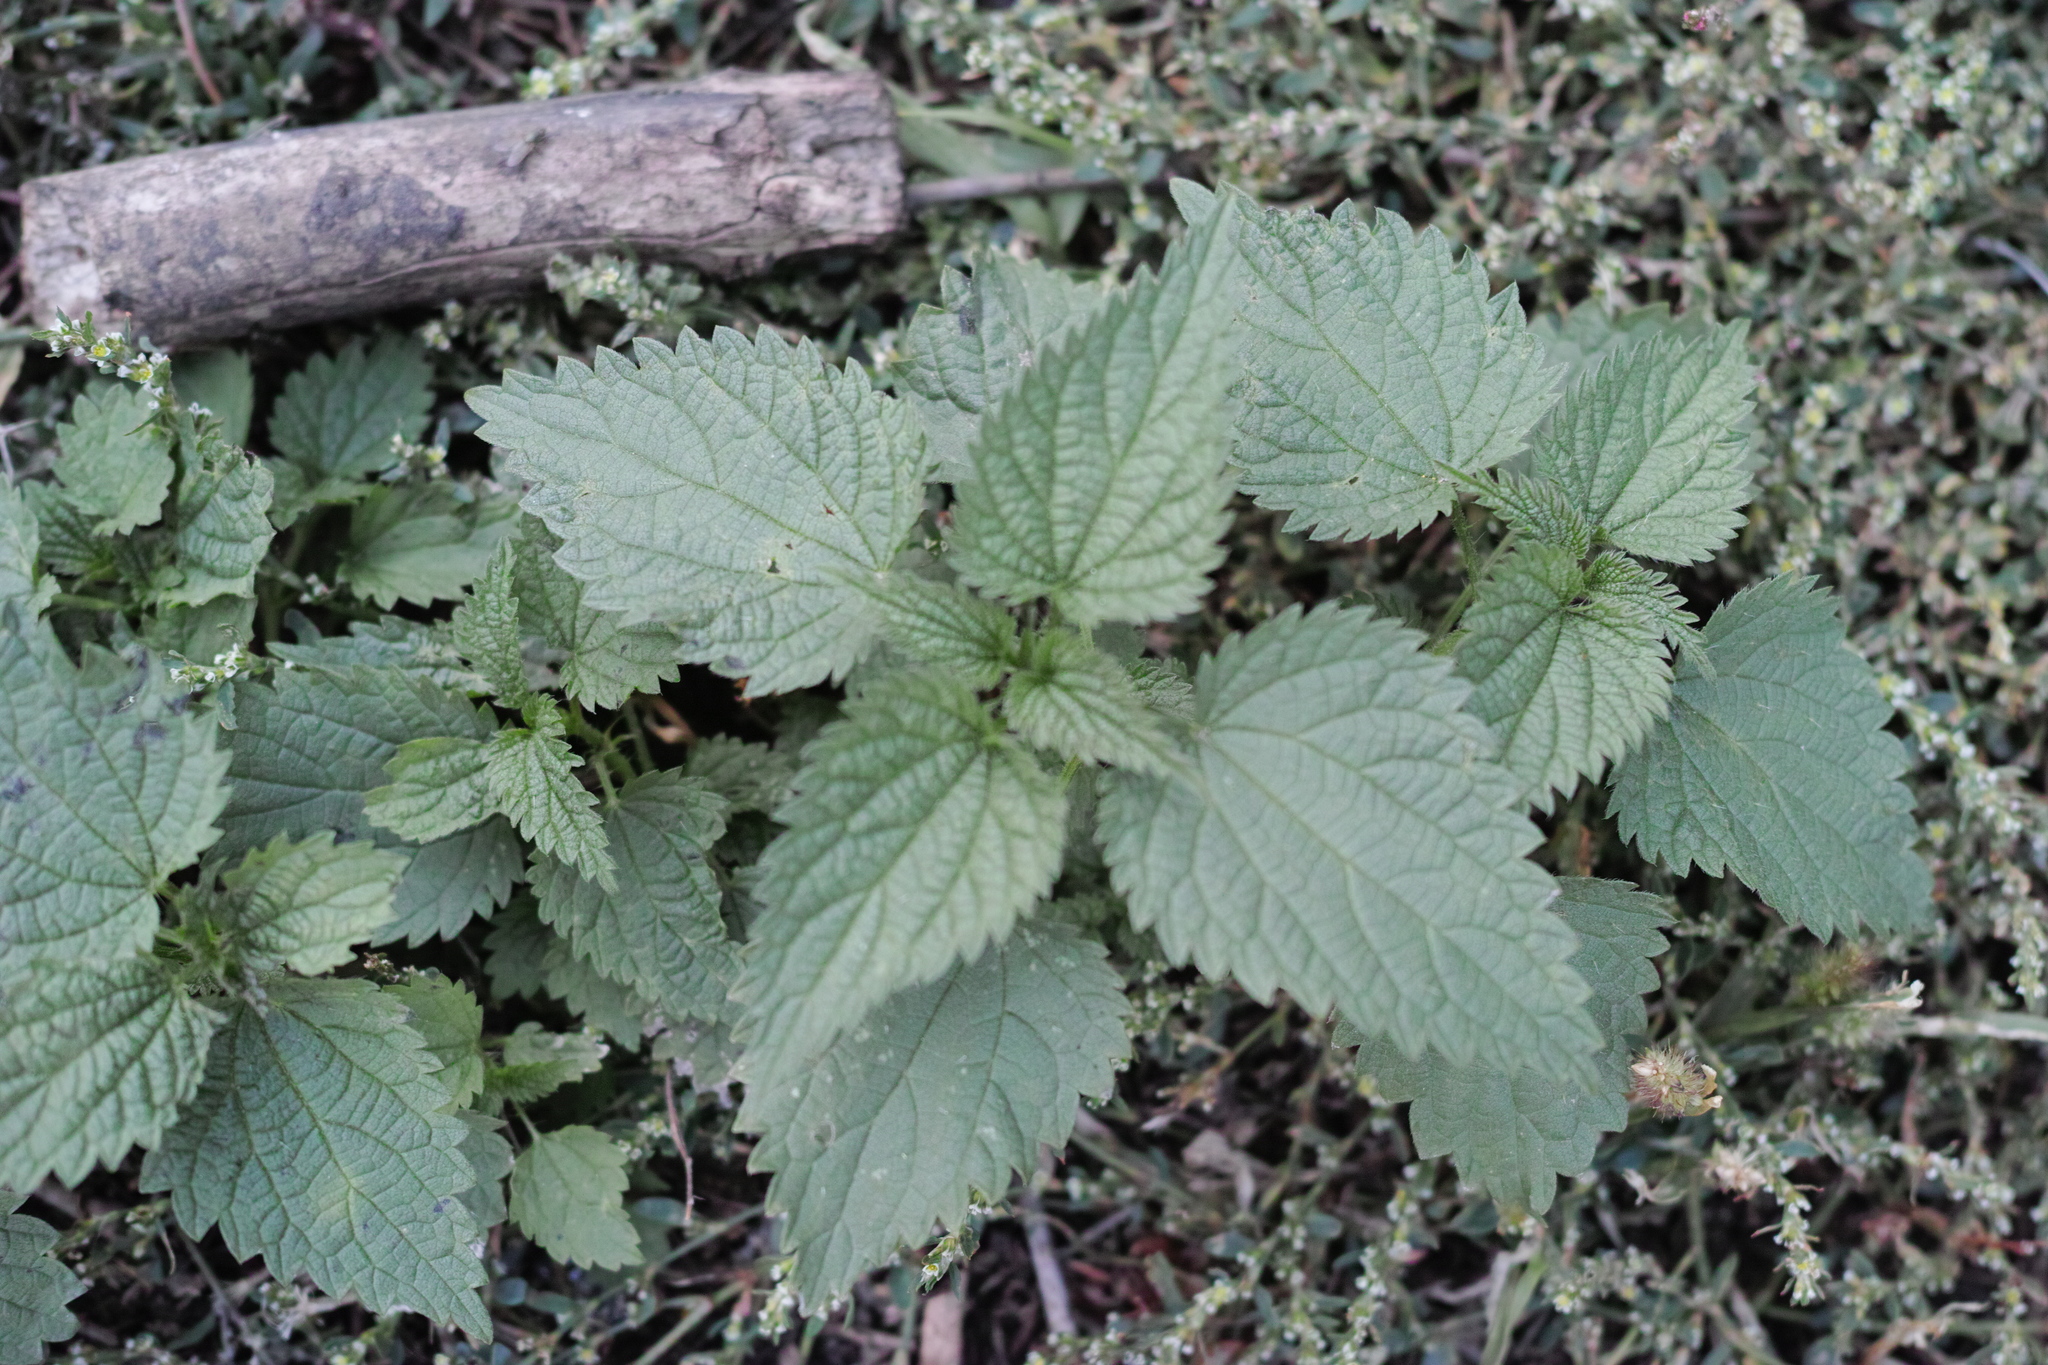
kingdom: Plantae
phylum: Tracheophyta
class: Magnoliopsida
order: Rosales
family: Urticaceae
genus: Urtica
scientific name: Urtica dioica
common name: Common nettle
